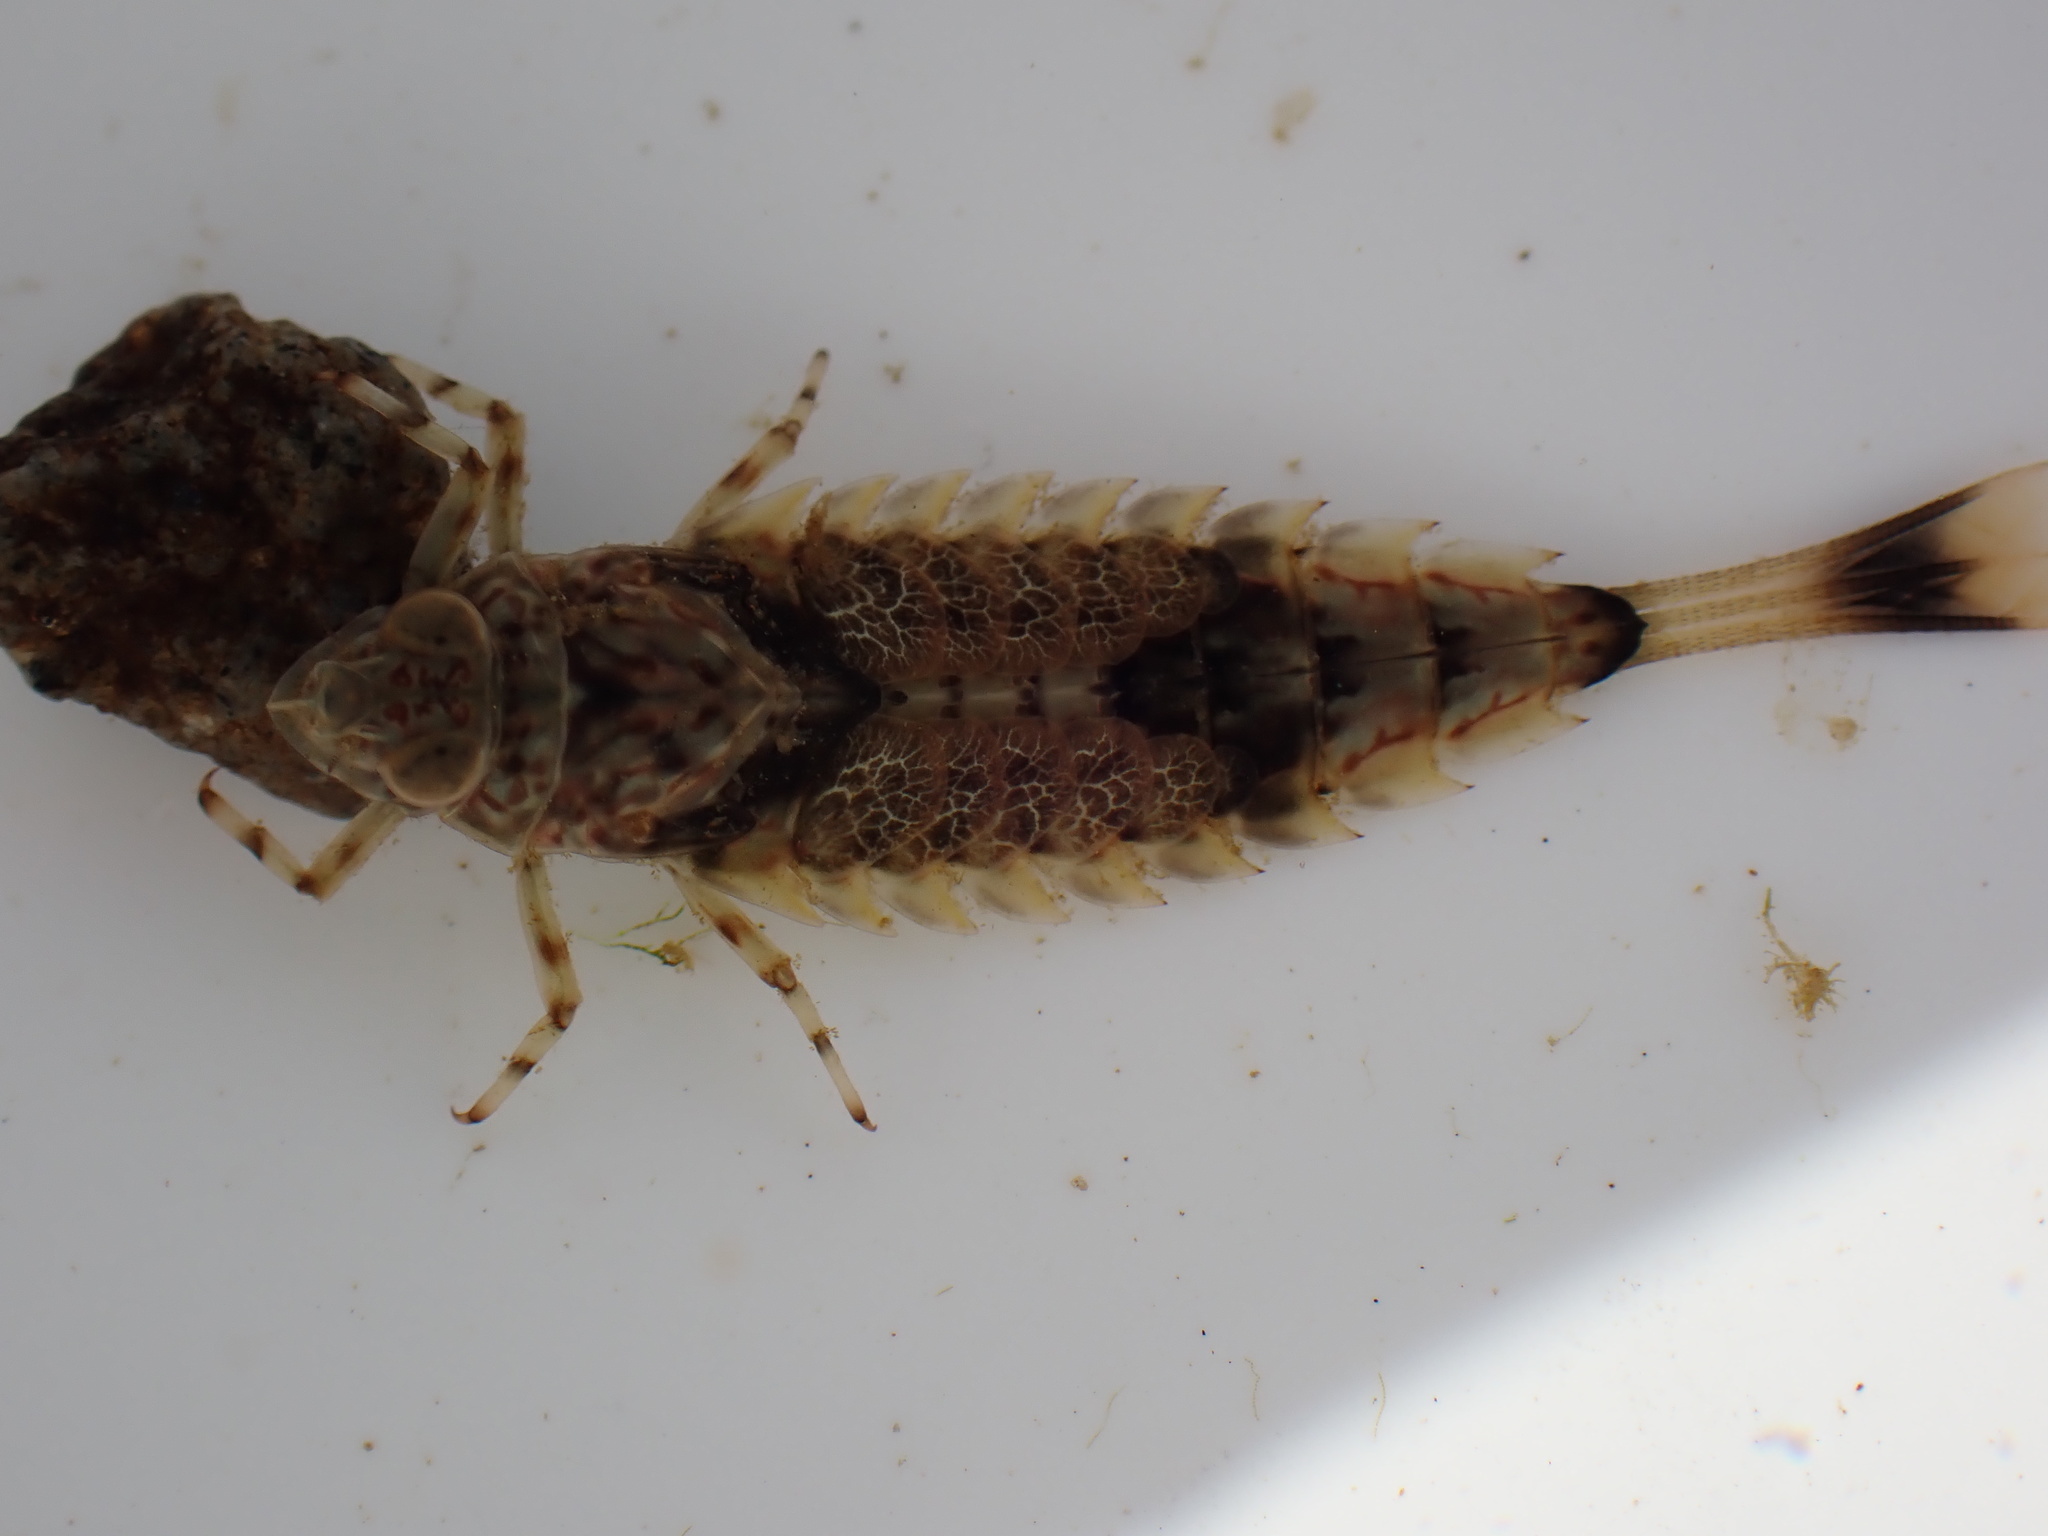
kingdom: Animalia
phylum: Arthropoda
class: Insecta
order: Ephemeroptera
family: Oniscigastridae
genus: Oniscigaster
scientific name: Oniscigaster wakefieldi
